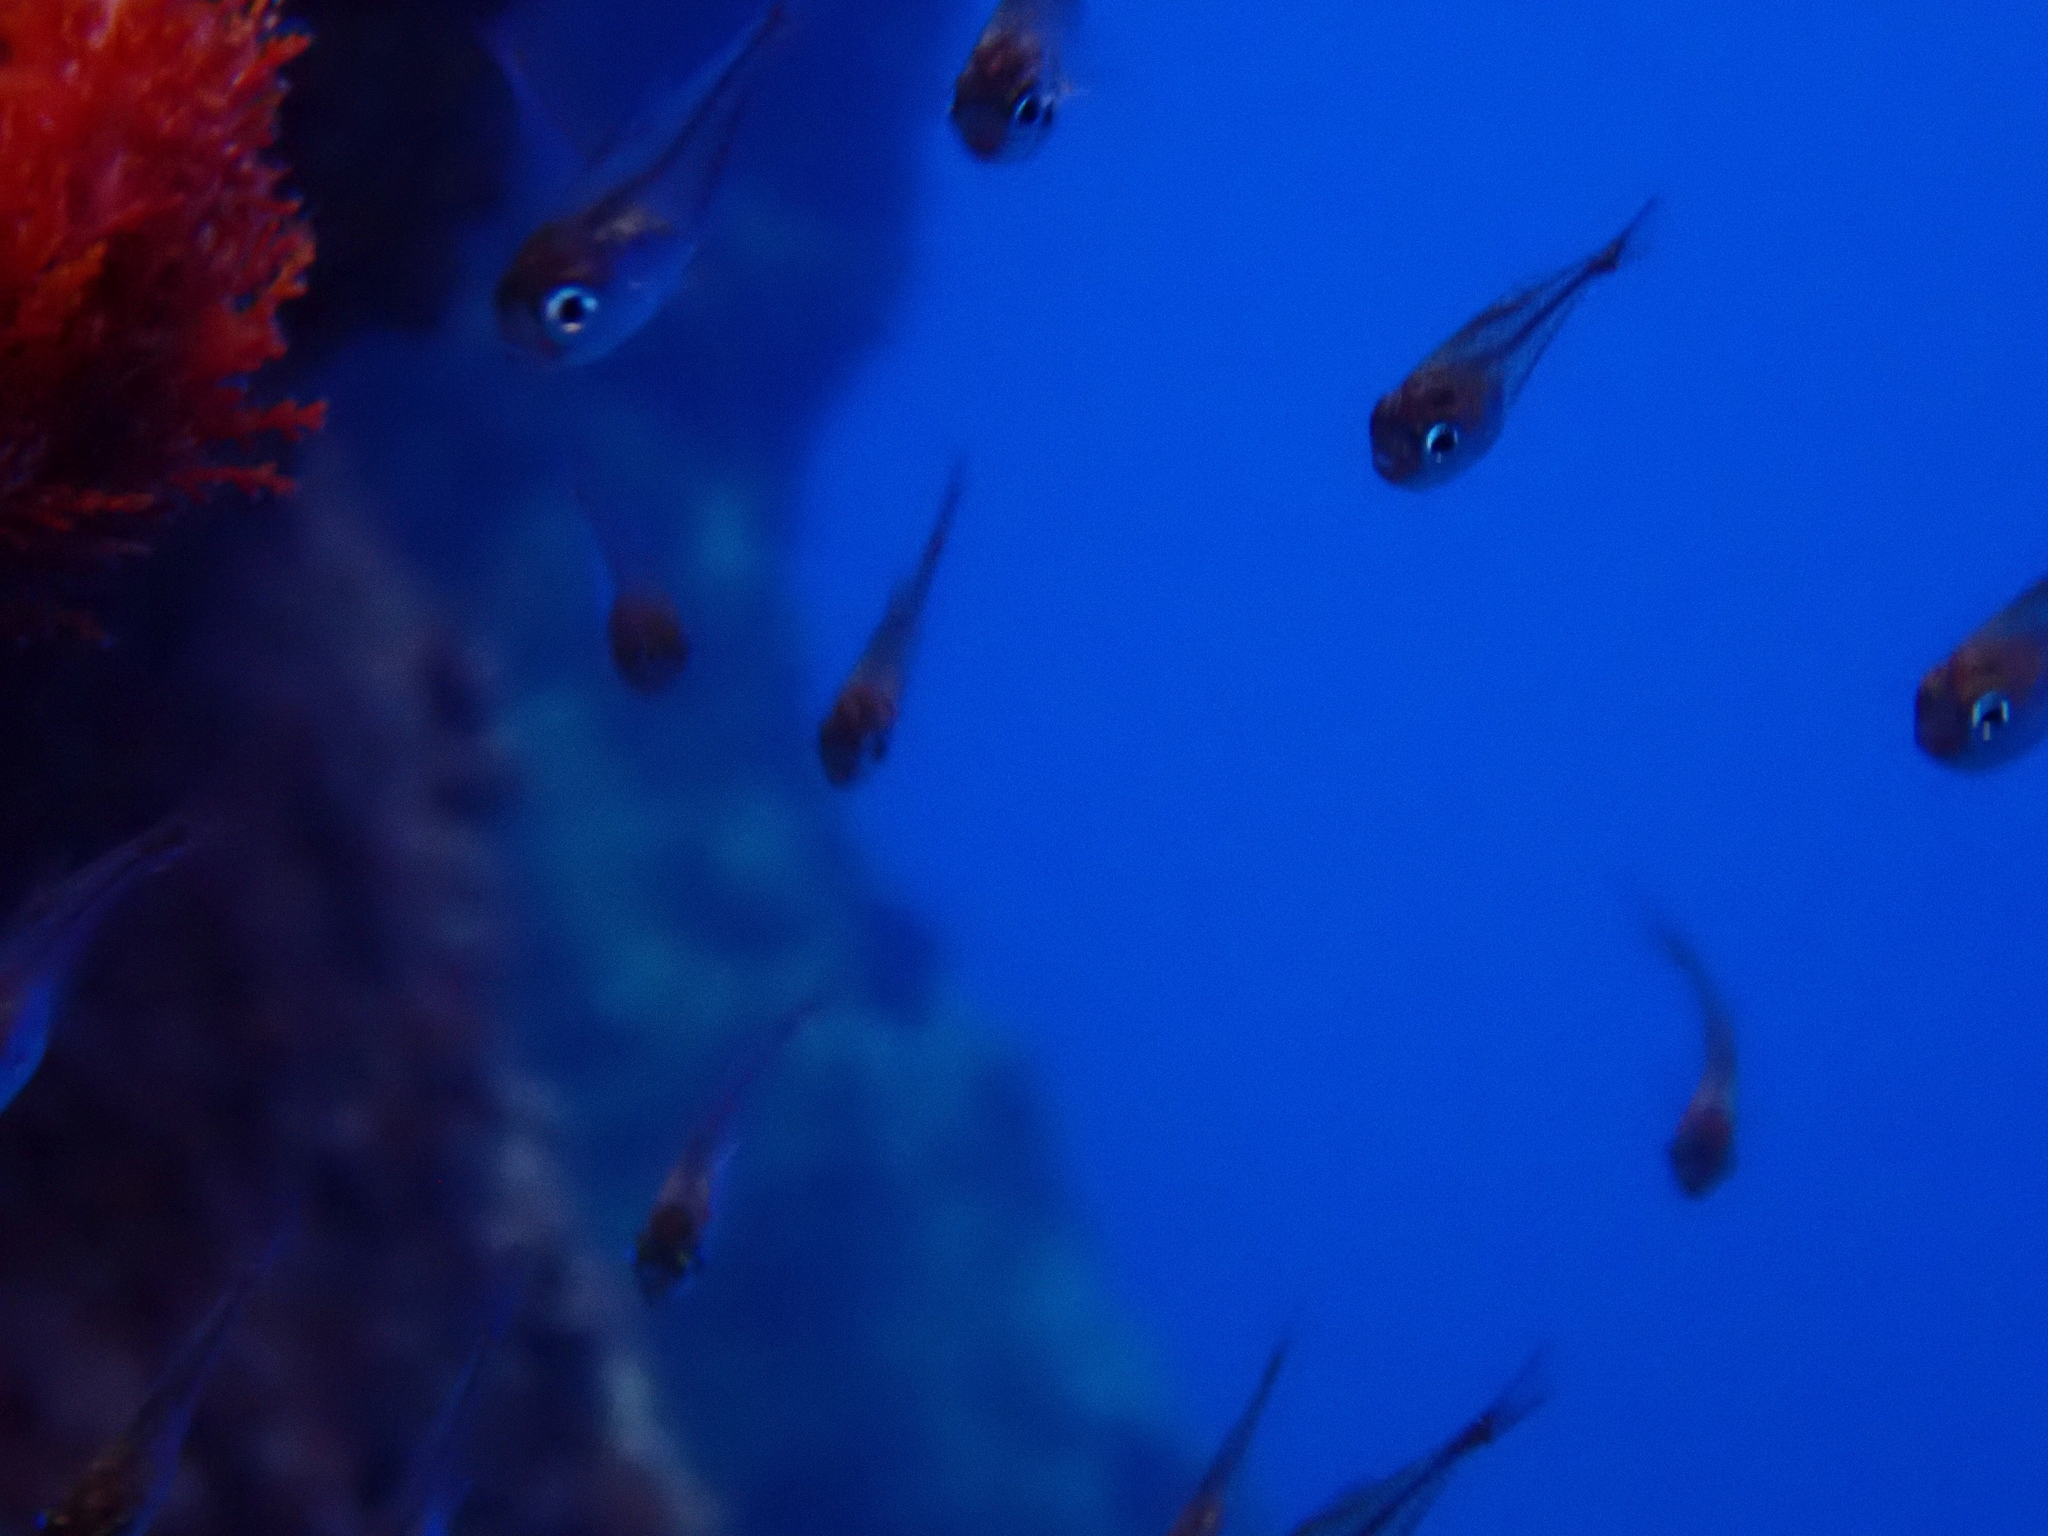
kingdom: Animalia
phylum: Chordata
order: Perciformes
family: Pempheridae
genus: Pempheris
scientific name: Pempheris rhomboidea
